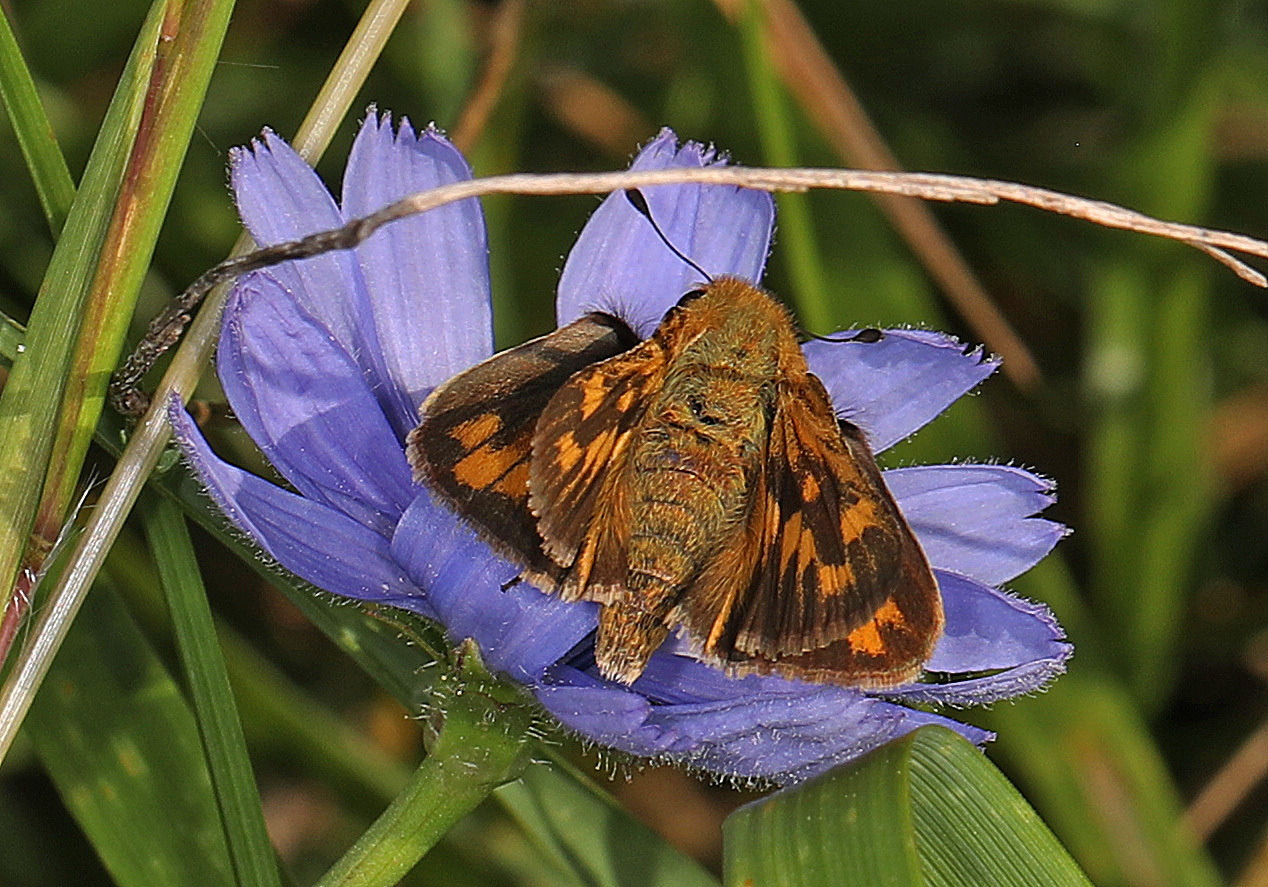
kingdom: Animalia
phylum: Arthropoda
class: Insecta
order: Lepidoptera
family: Hesperiidae
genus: Hylephila
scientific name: Hylephila phyleus
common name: Fiery skipper
